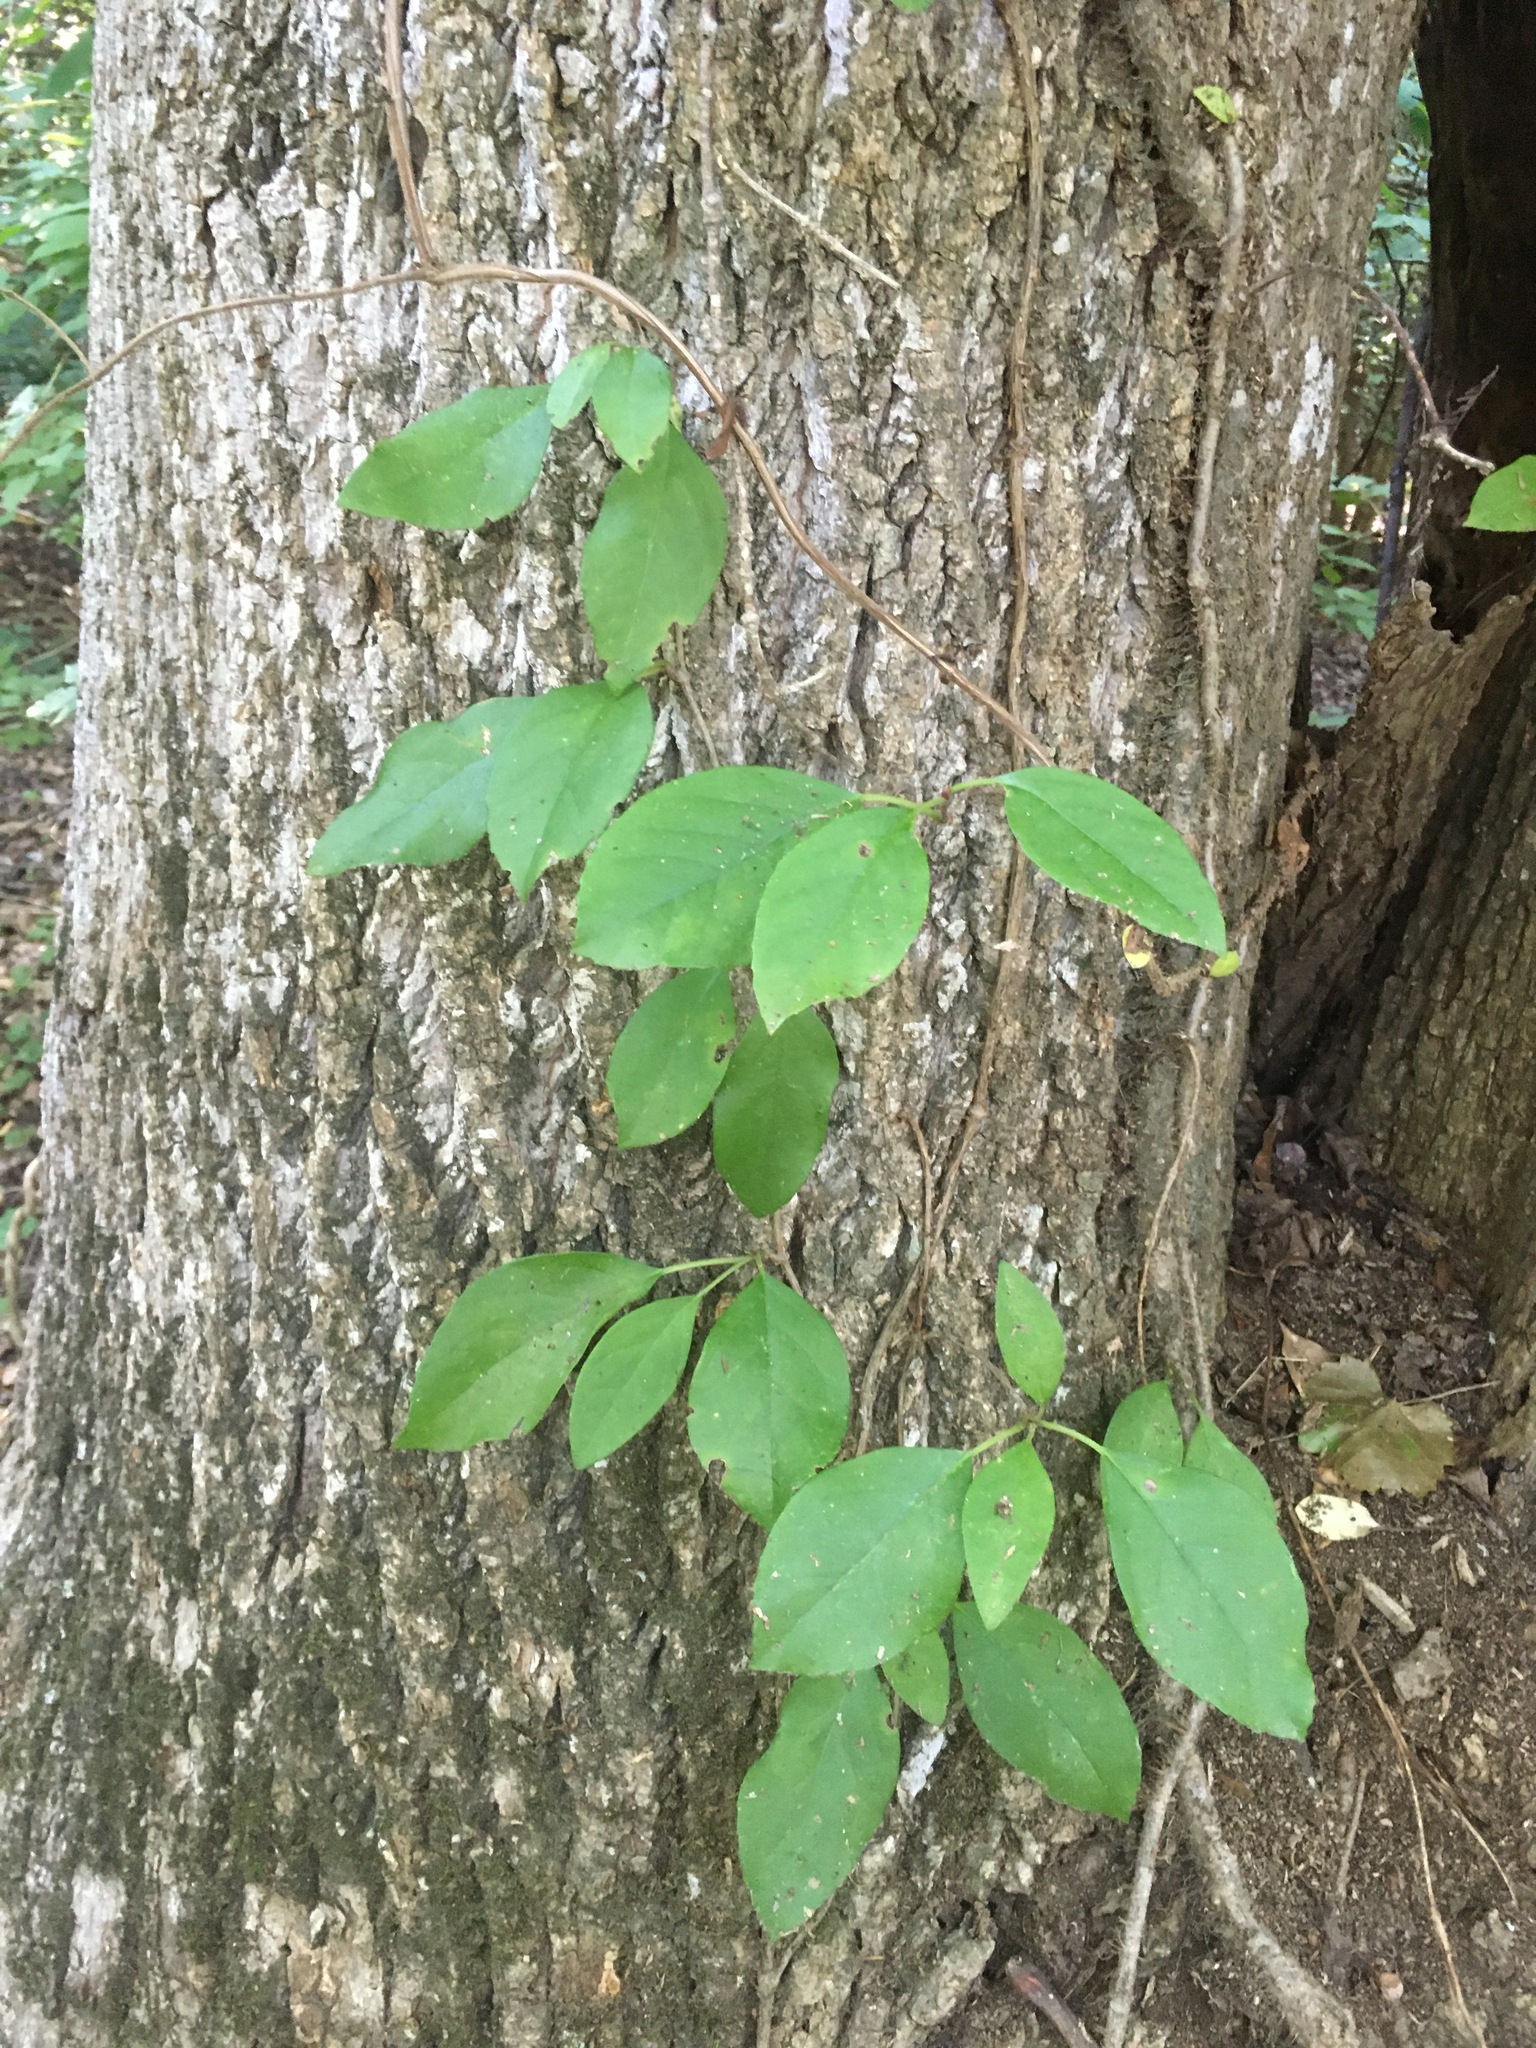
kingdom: Plantae
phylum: Tracheophyta
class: Magnoliopsida
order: Cornales
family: Hydrangeaceae
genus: Hydrangea
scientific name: Hydrangea barbara
